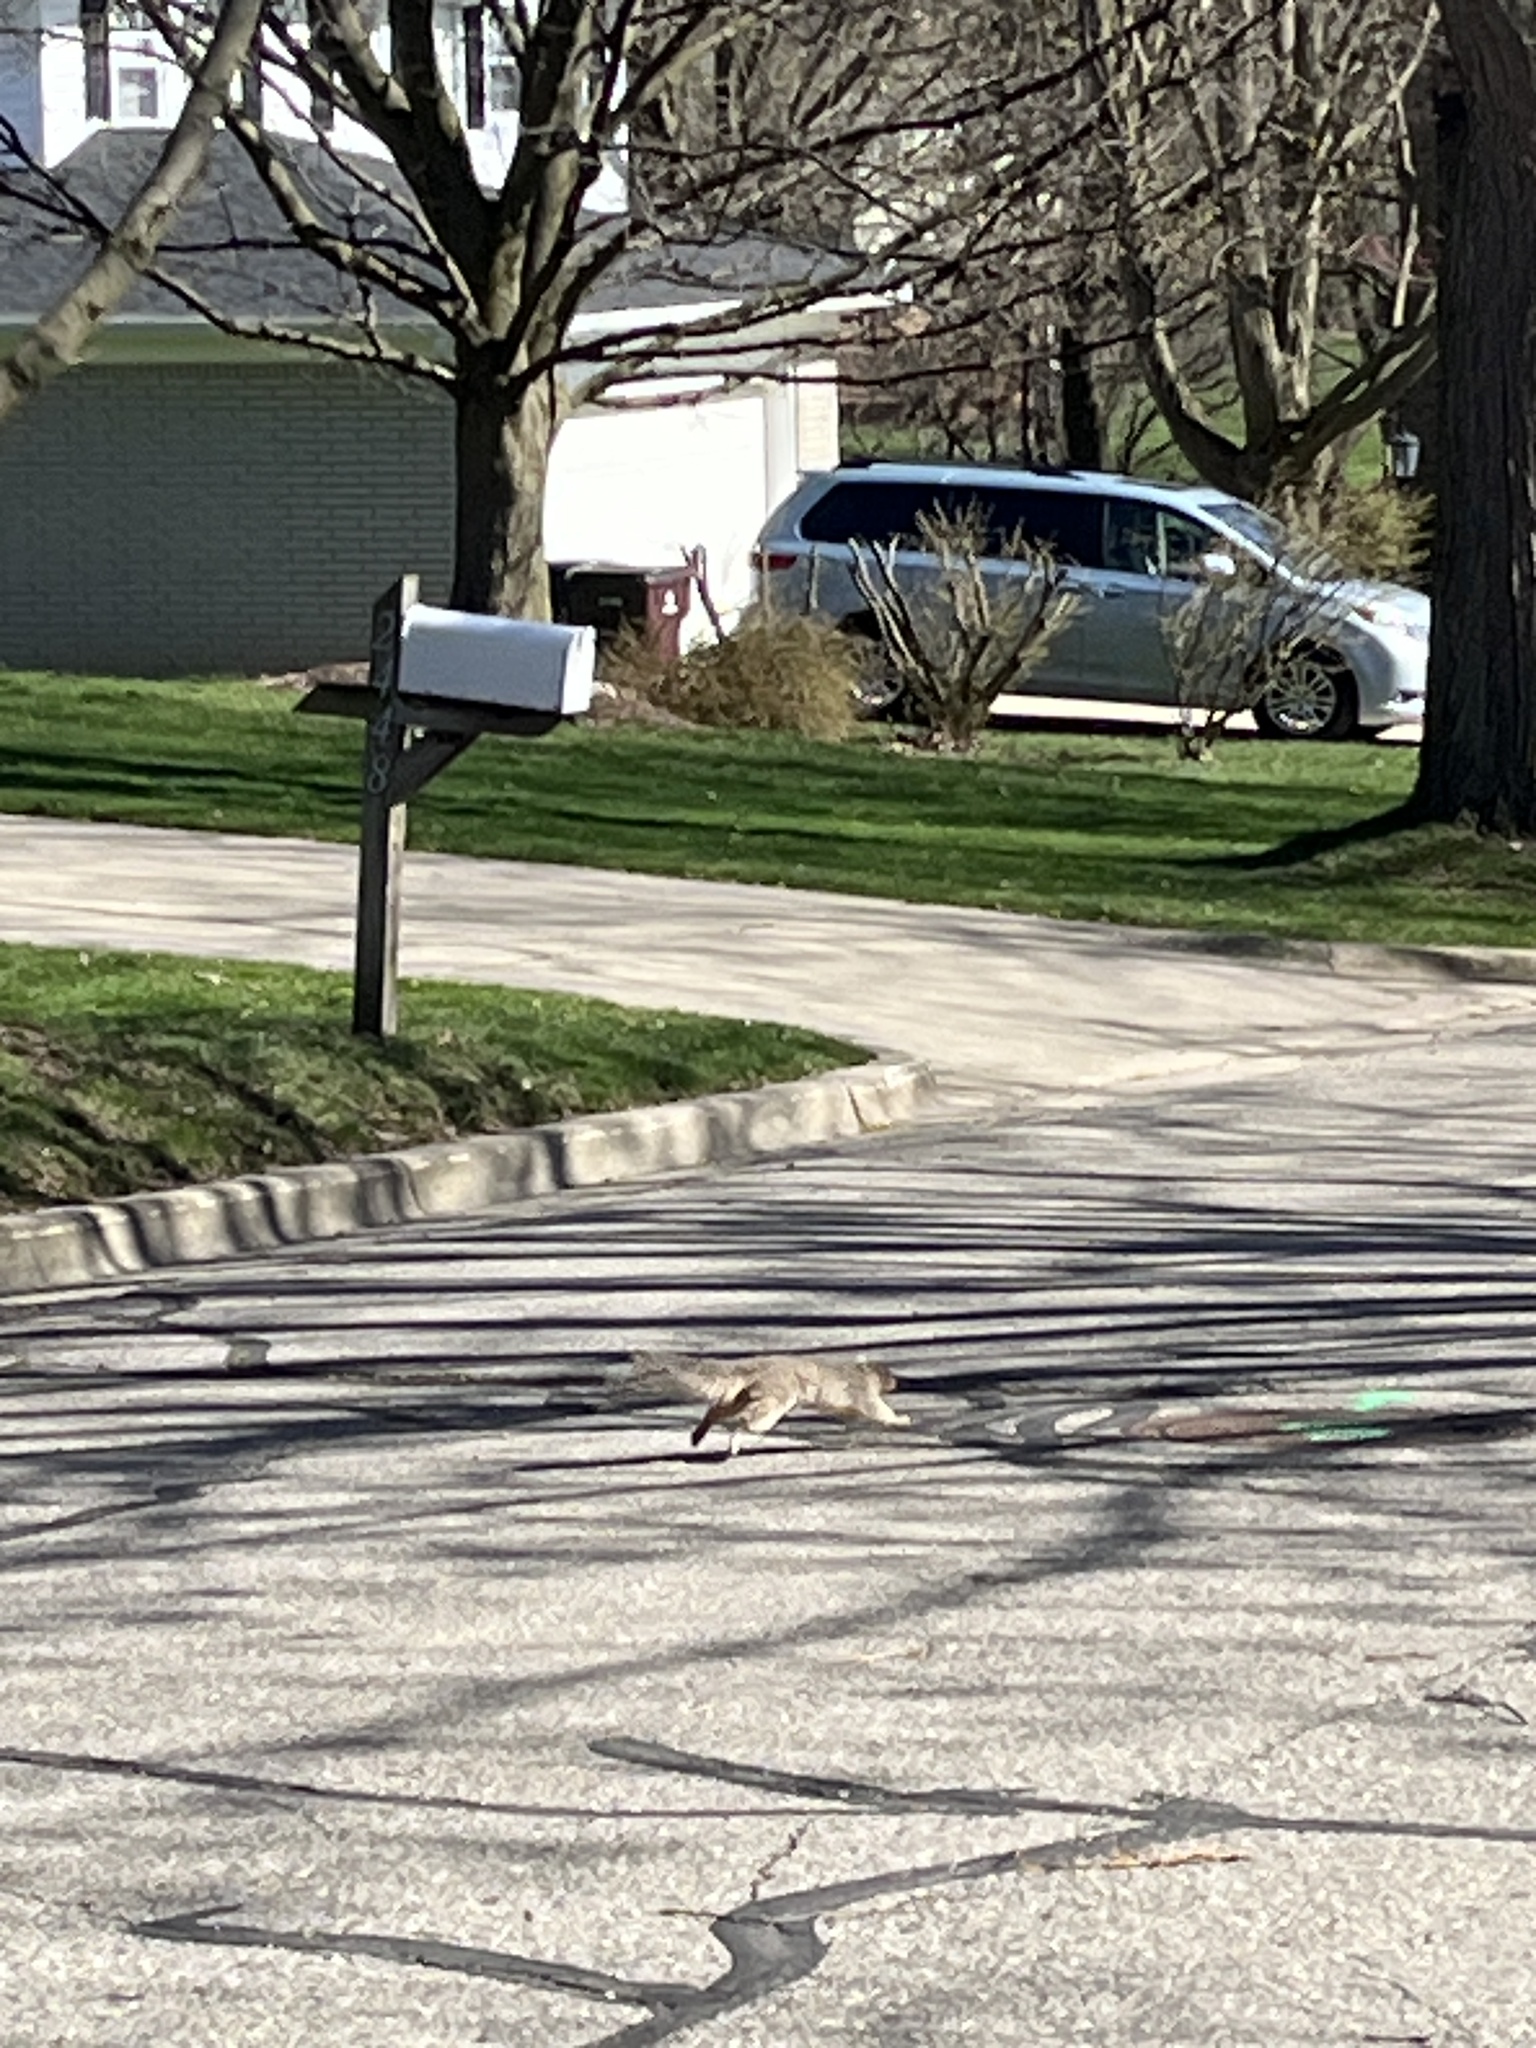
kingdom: Animalia
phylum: Chordata
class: Mammalia
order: Rodentia
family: Sciuridae
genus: Sciurus
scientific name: Sciurus carolinensis
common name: Eastern gray squirrel
